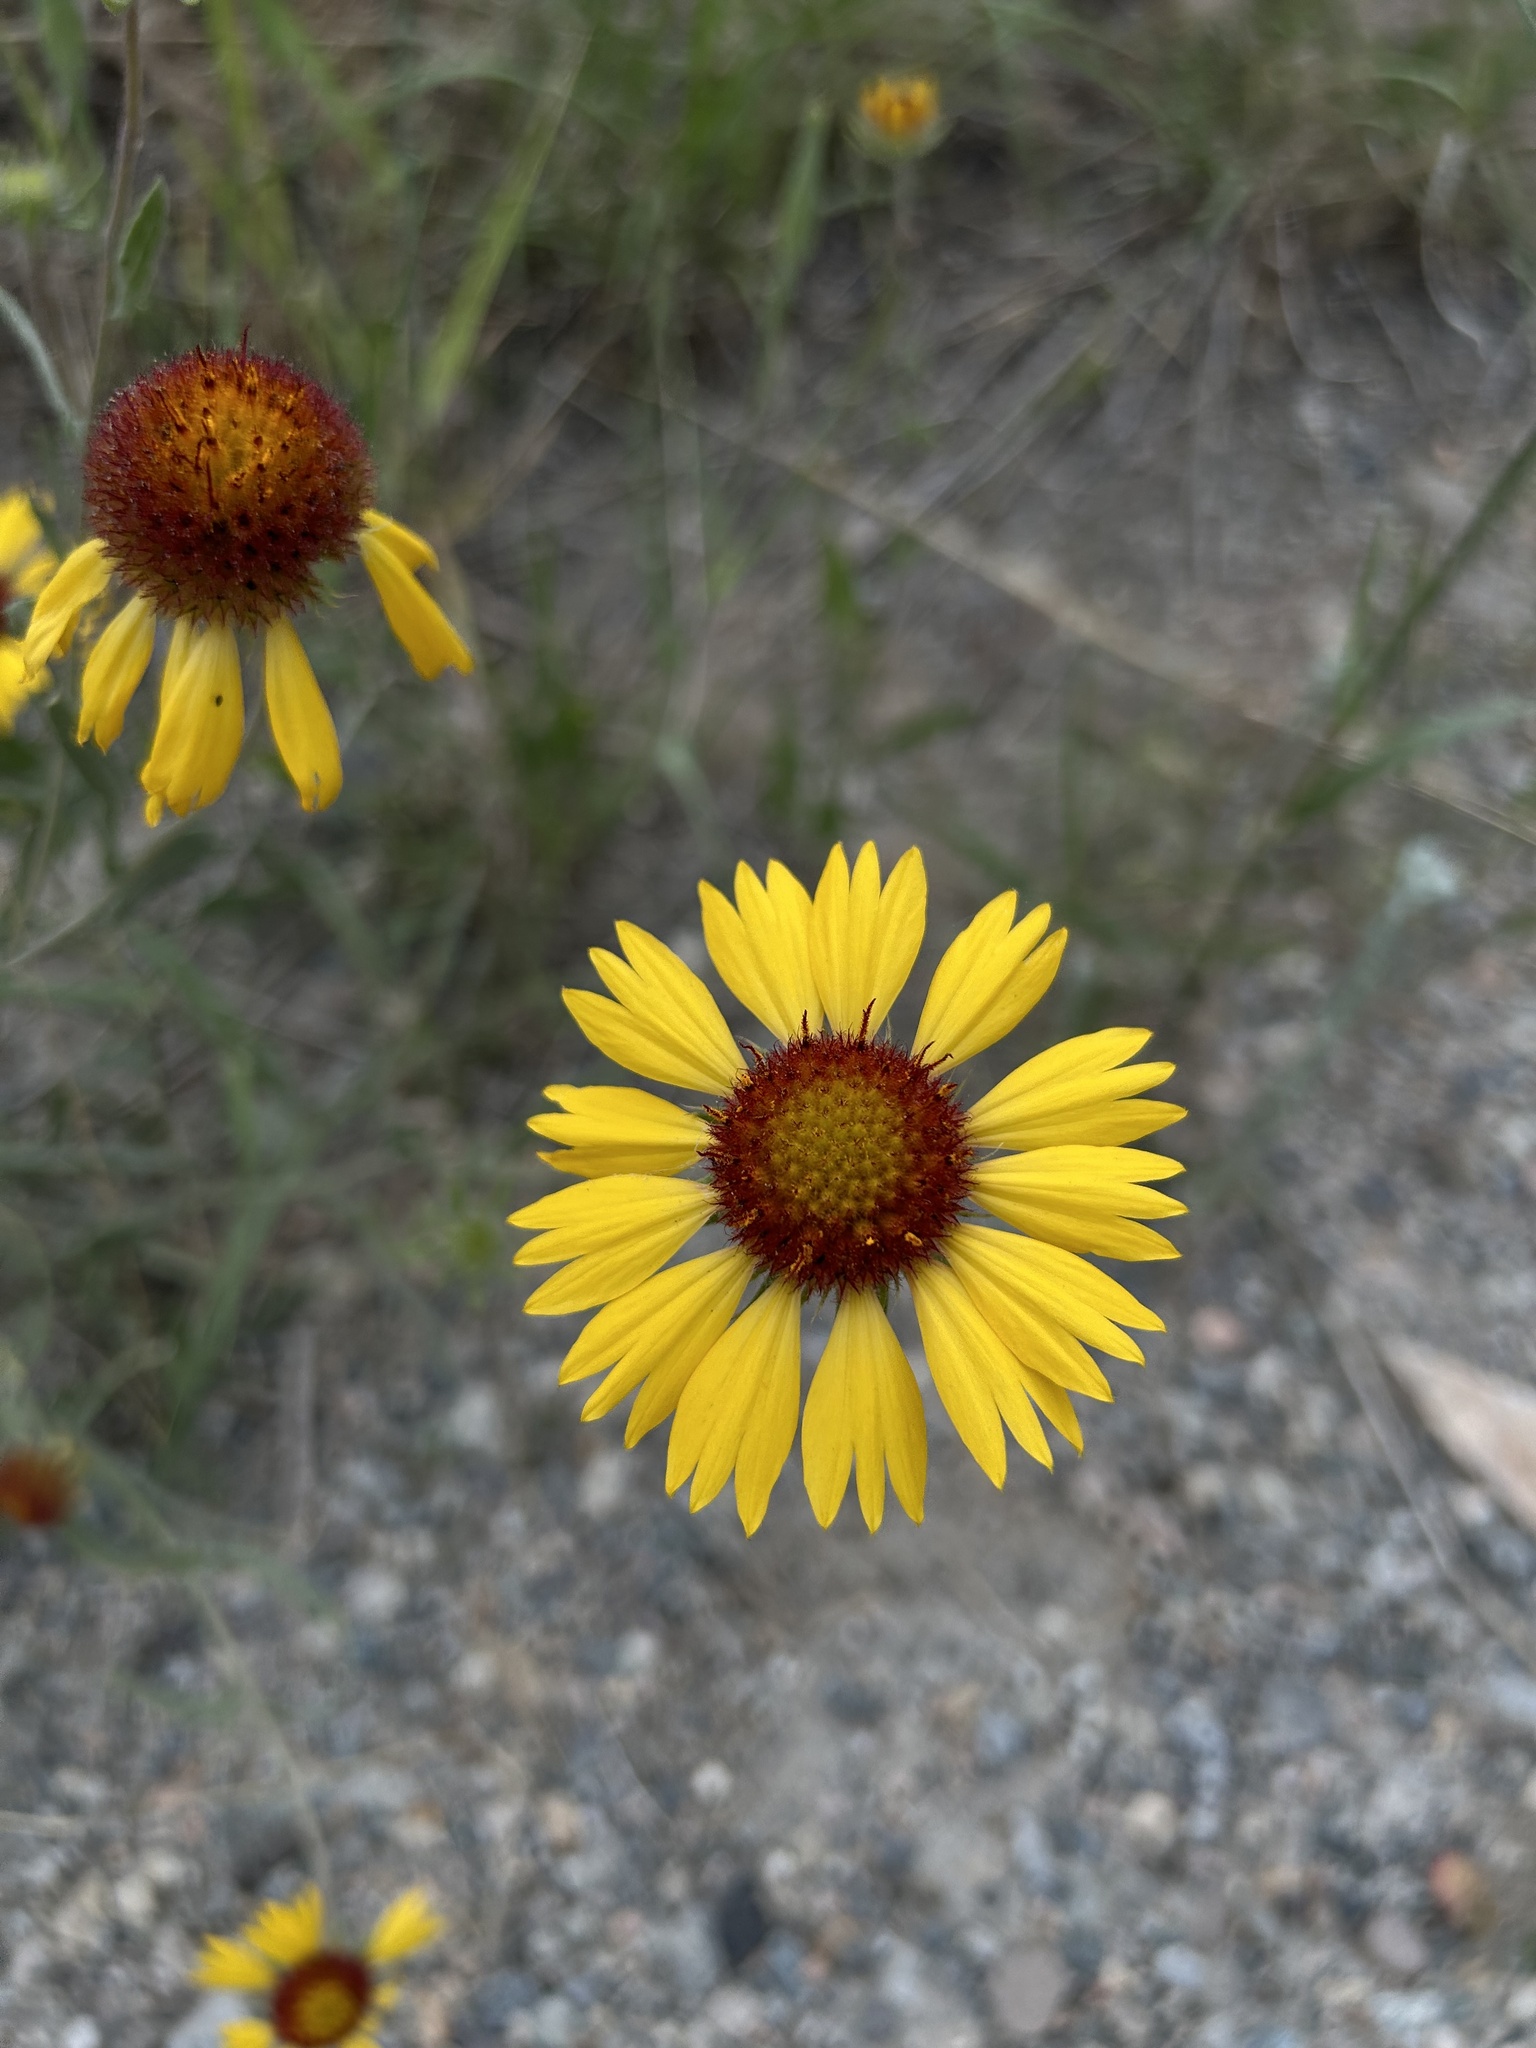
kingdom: Plantae
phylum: Tracheophyta
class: Magnoliopsida
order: Asterales
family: Asteraceae
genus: Gaillardia
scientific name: Gaillardia aristata
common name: Blanket-flower
